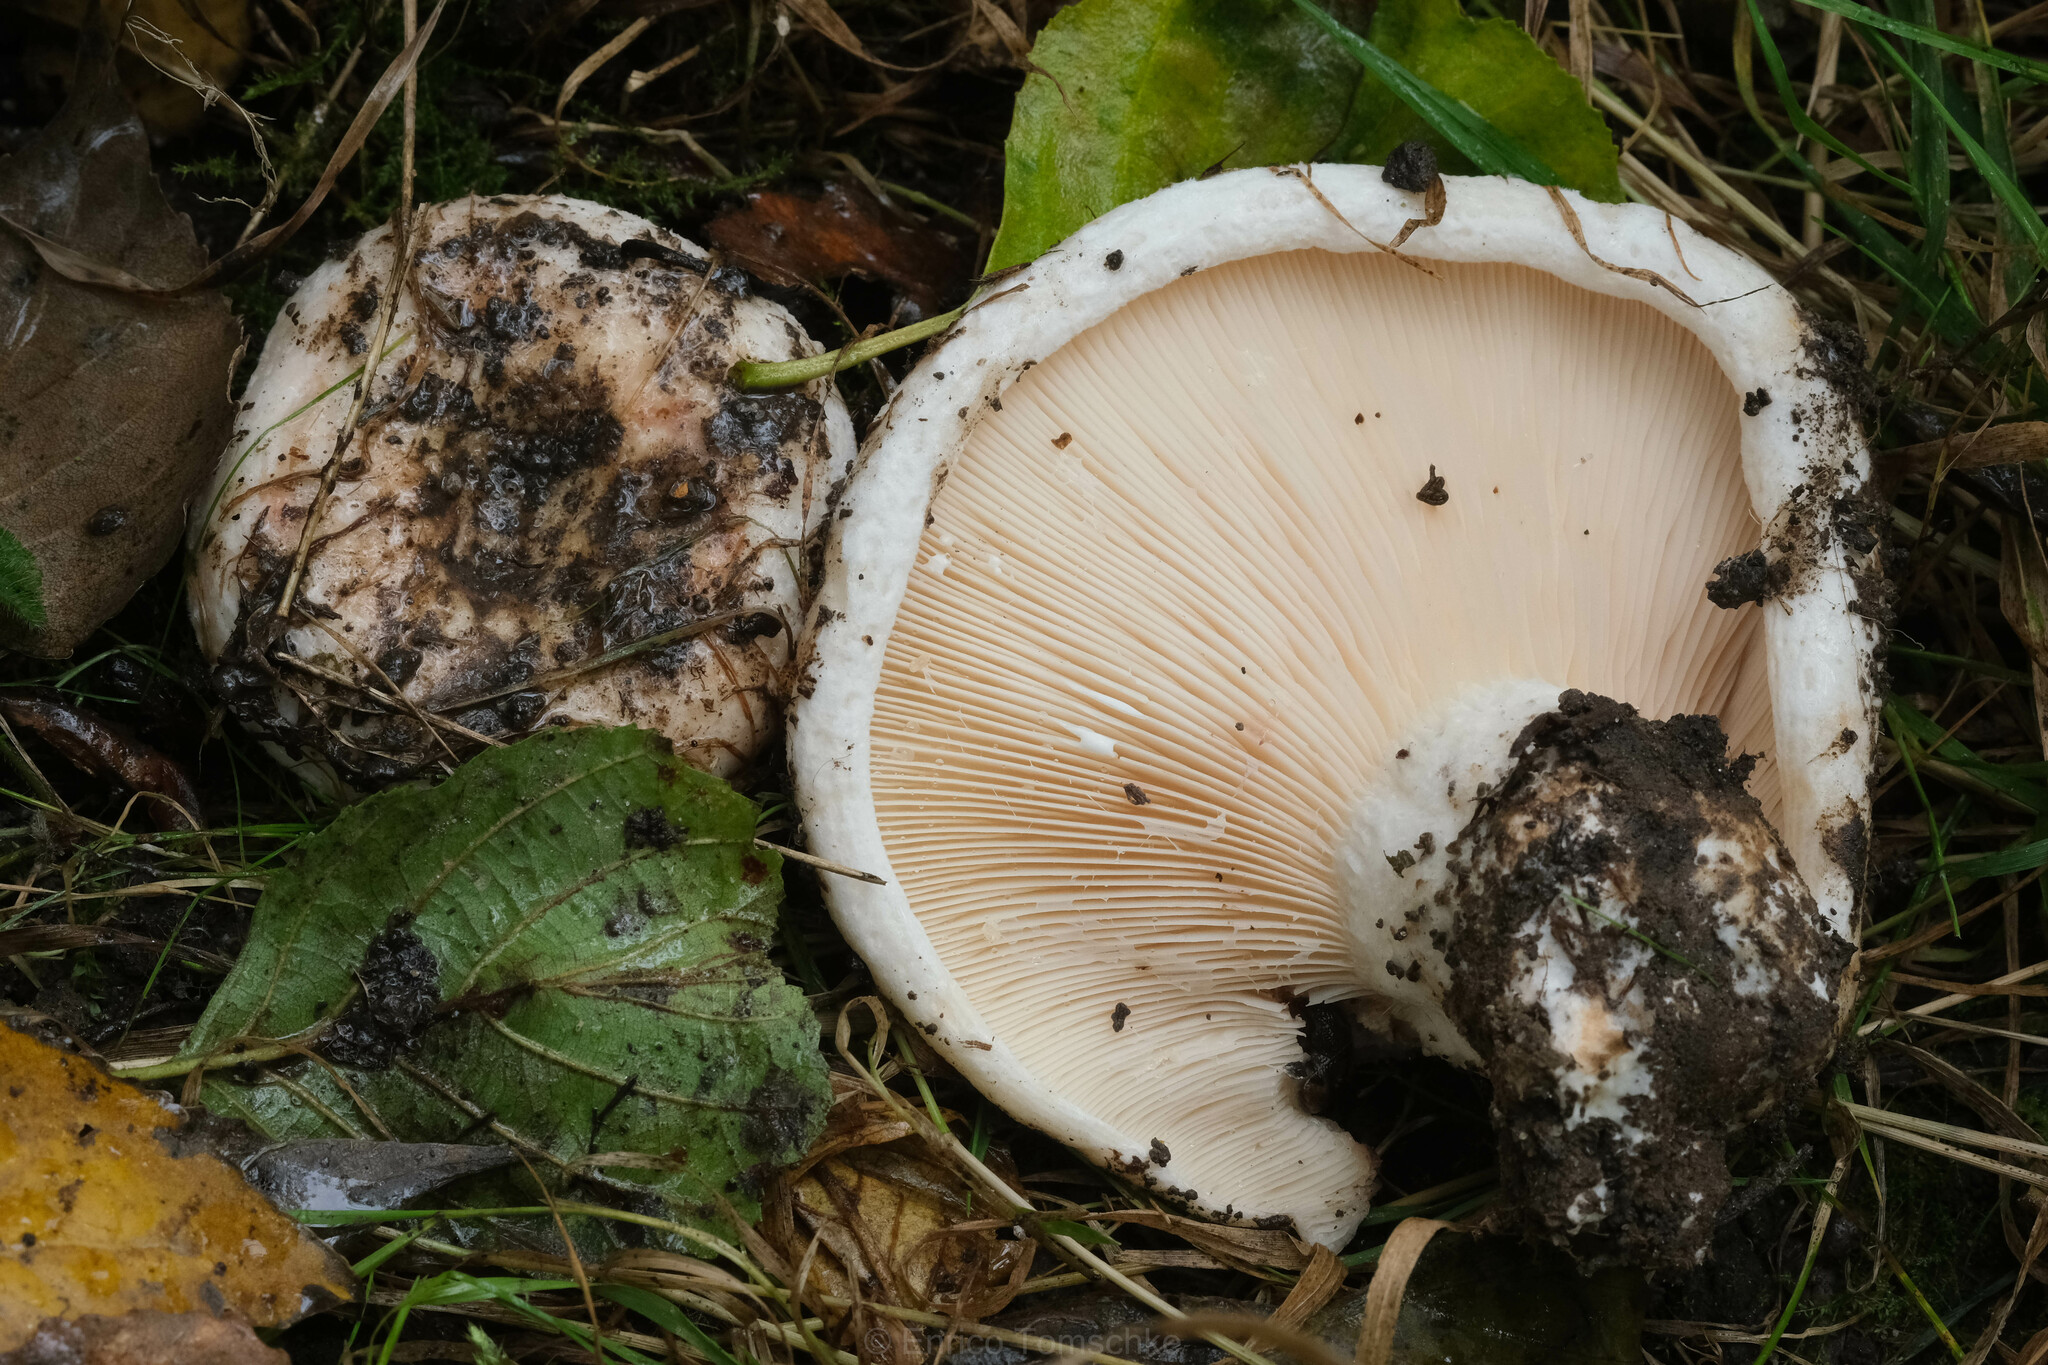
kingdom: Fungi
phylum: Basidiomycota
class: Agaricomycetes
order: Russulales
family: Russulaceae
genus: Lactarius
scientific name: Lactarius controversus
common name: Blushing milkcap
